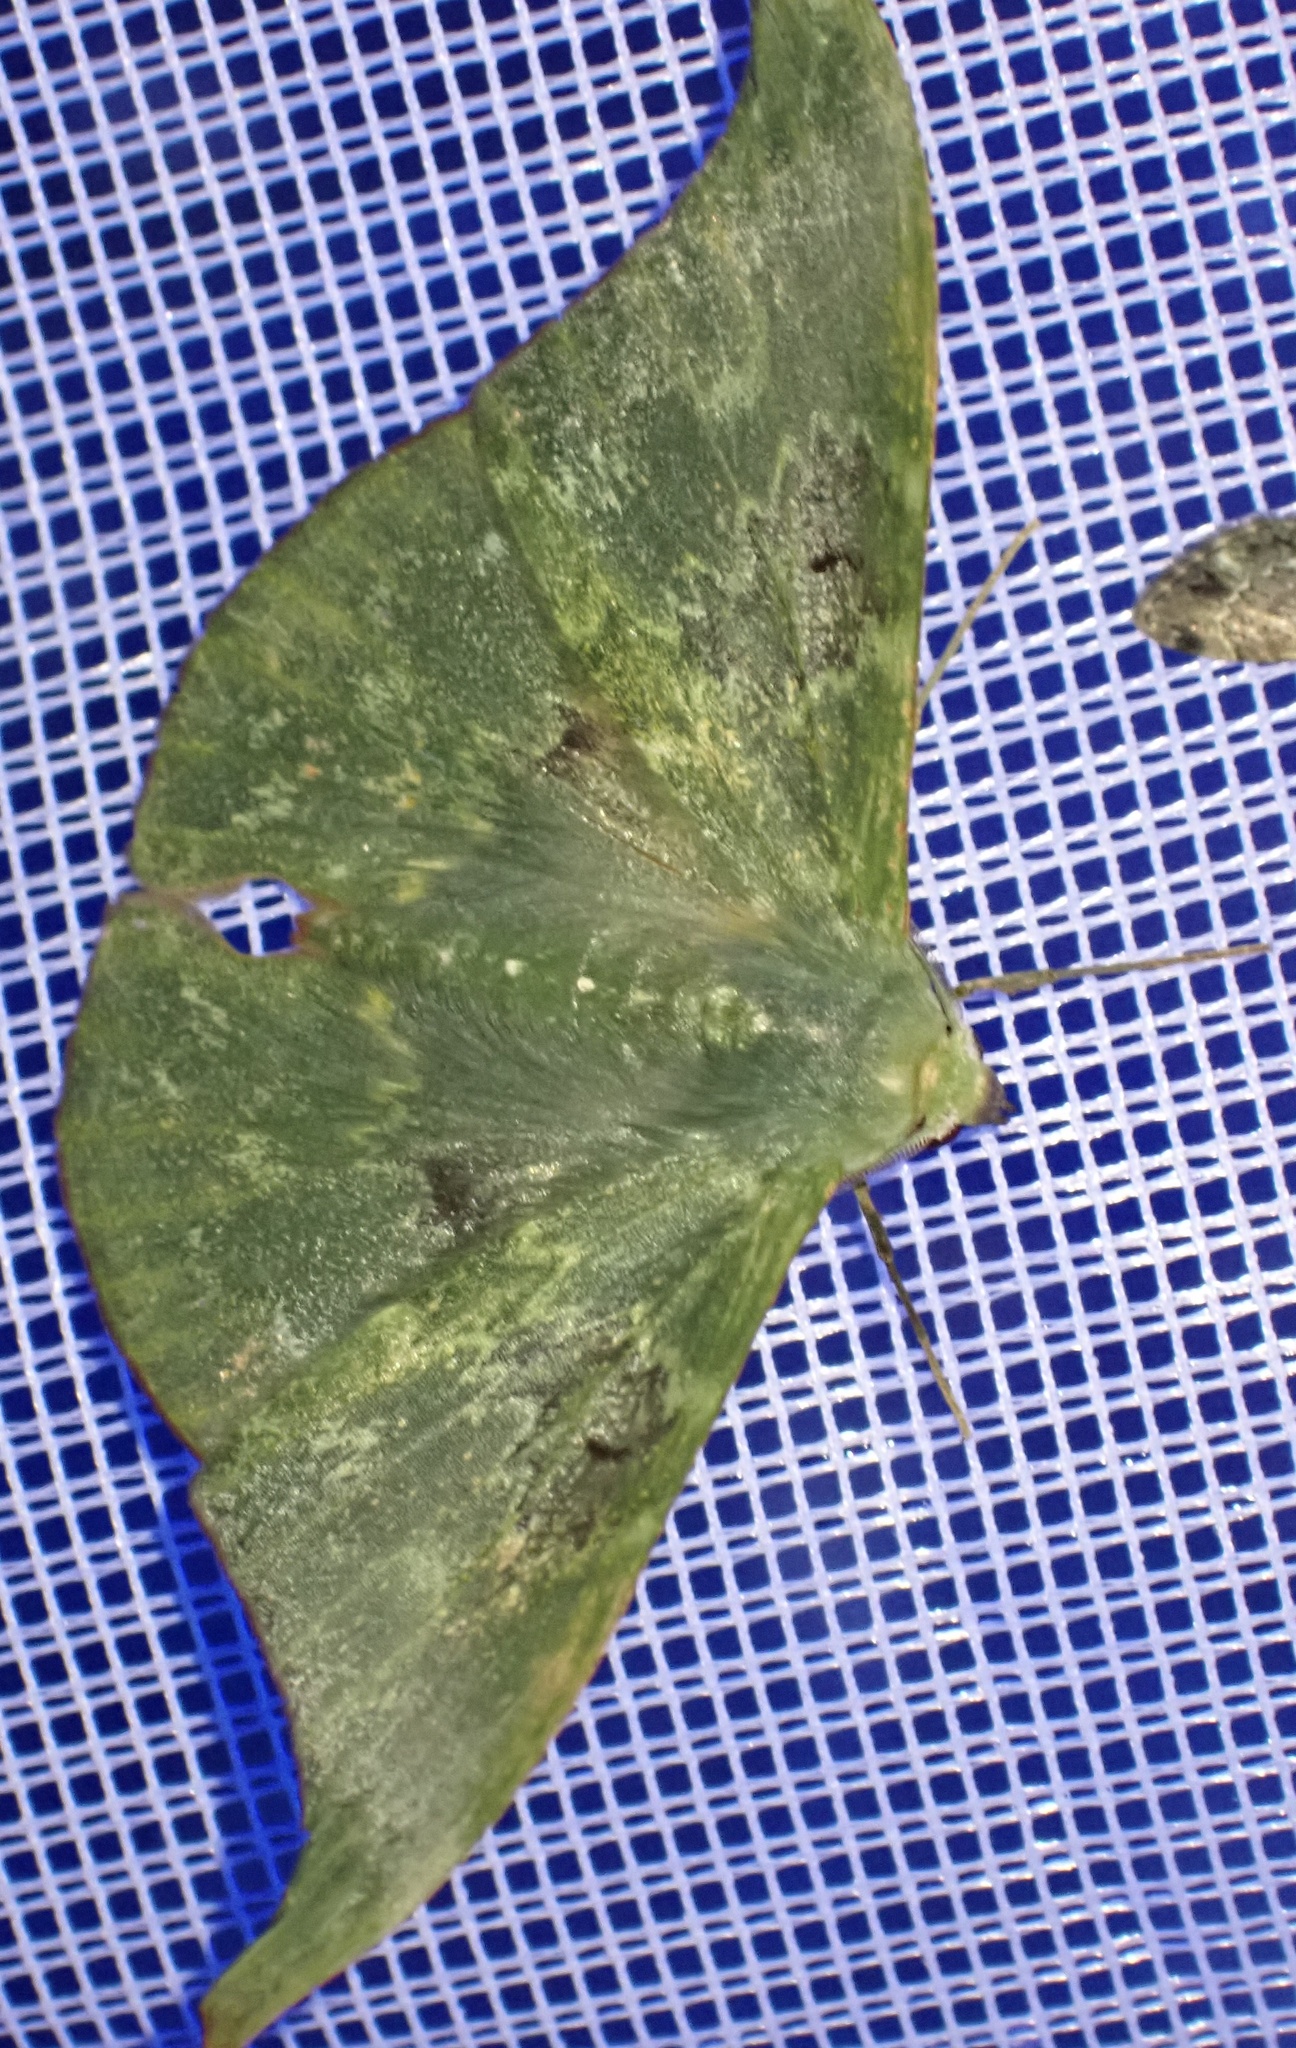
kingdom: Animalia
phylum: Arthropoda
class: Insecta
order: Lepidoptera
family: Geometridae
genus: Tanaorhinus
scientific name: Tanaorhinus unipuncta
